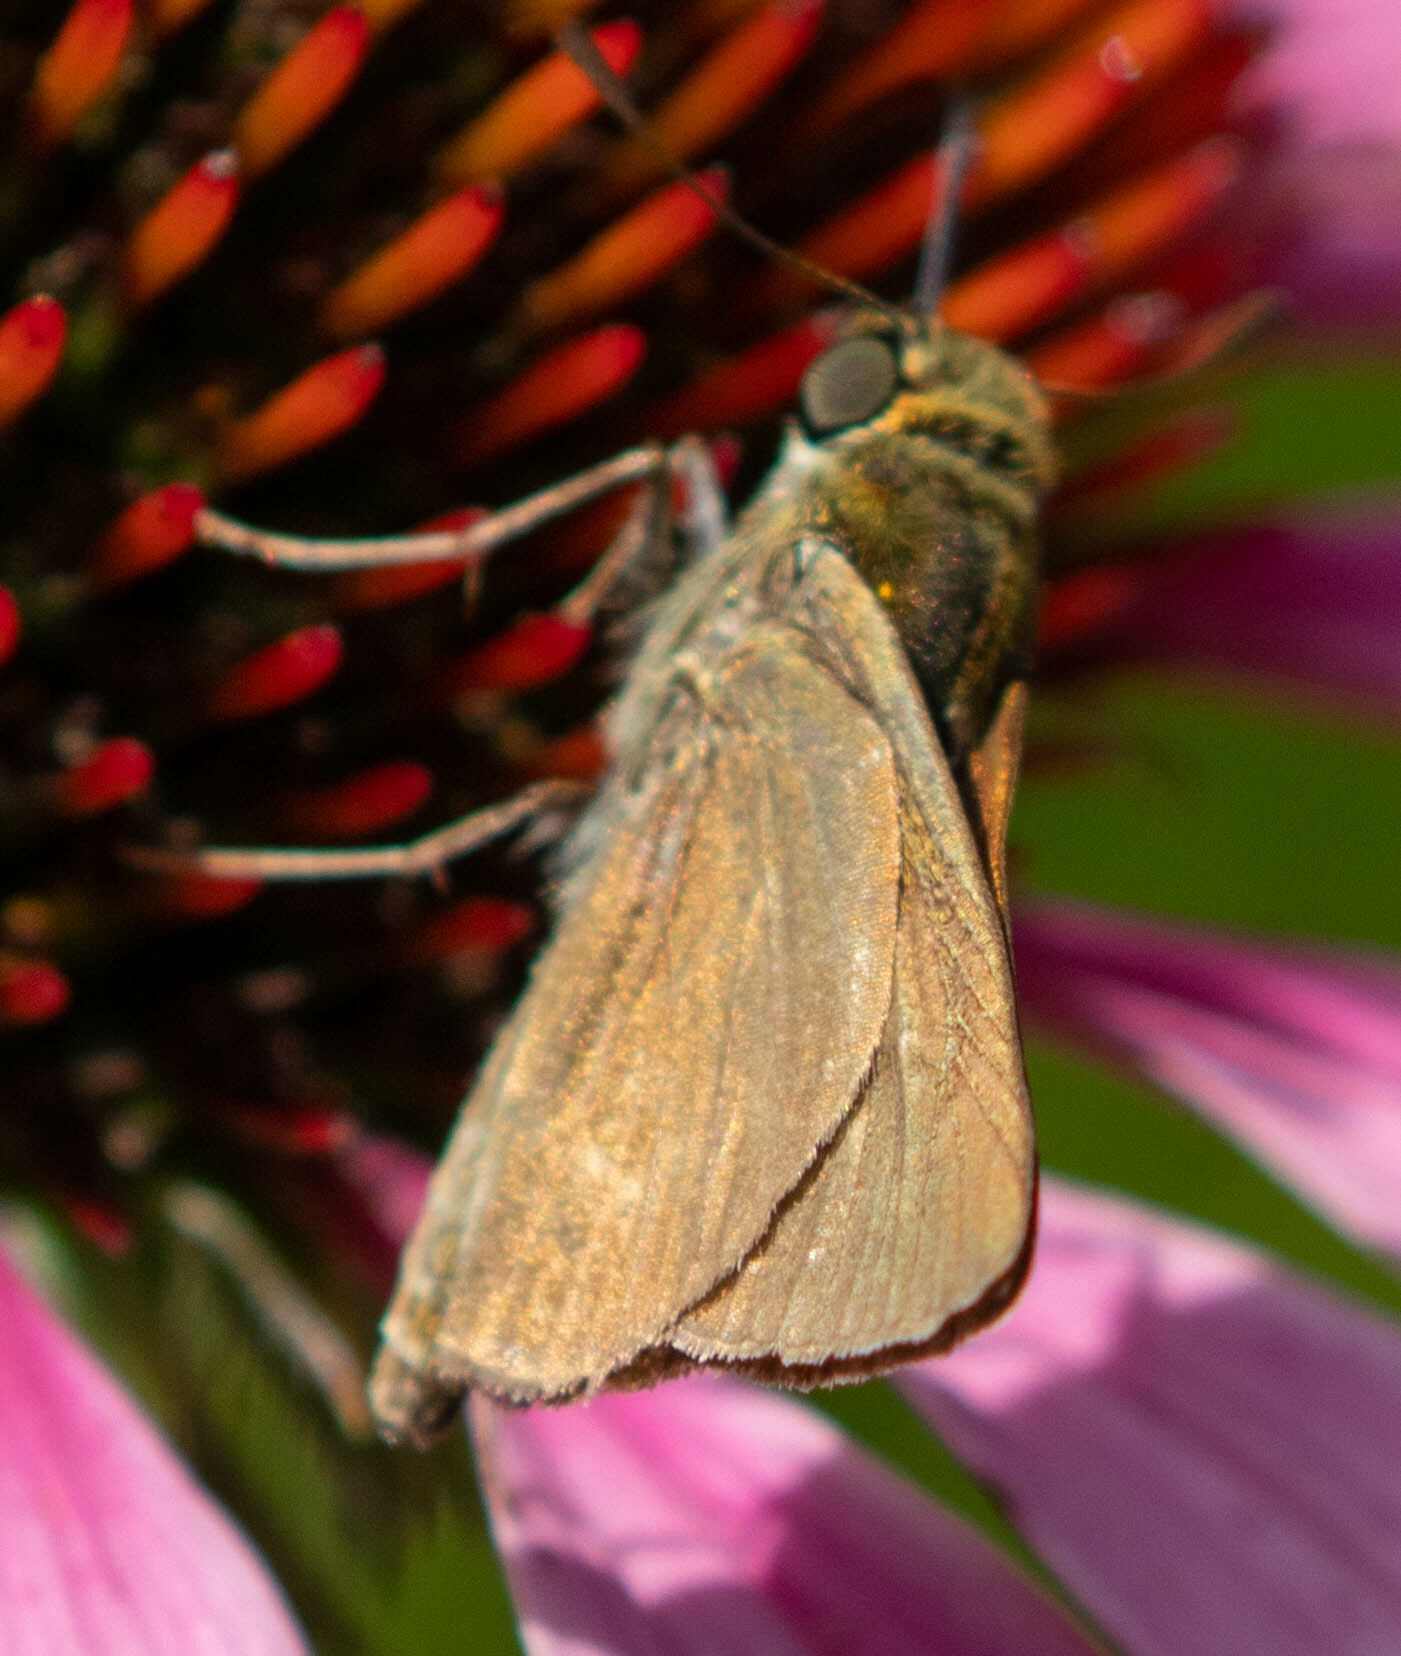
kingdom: Animalia
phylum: Arthropoda
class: Insecta
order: Lepidoptera
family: Hesperiidae
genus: Euphyes
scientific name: Euphyes vestris
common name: Dun skipper
